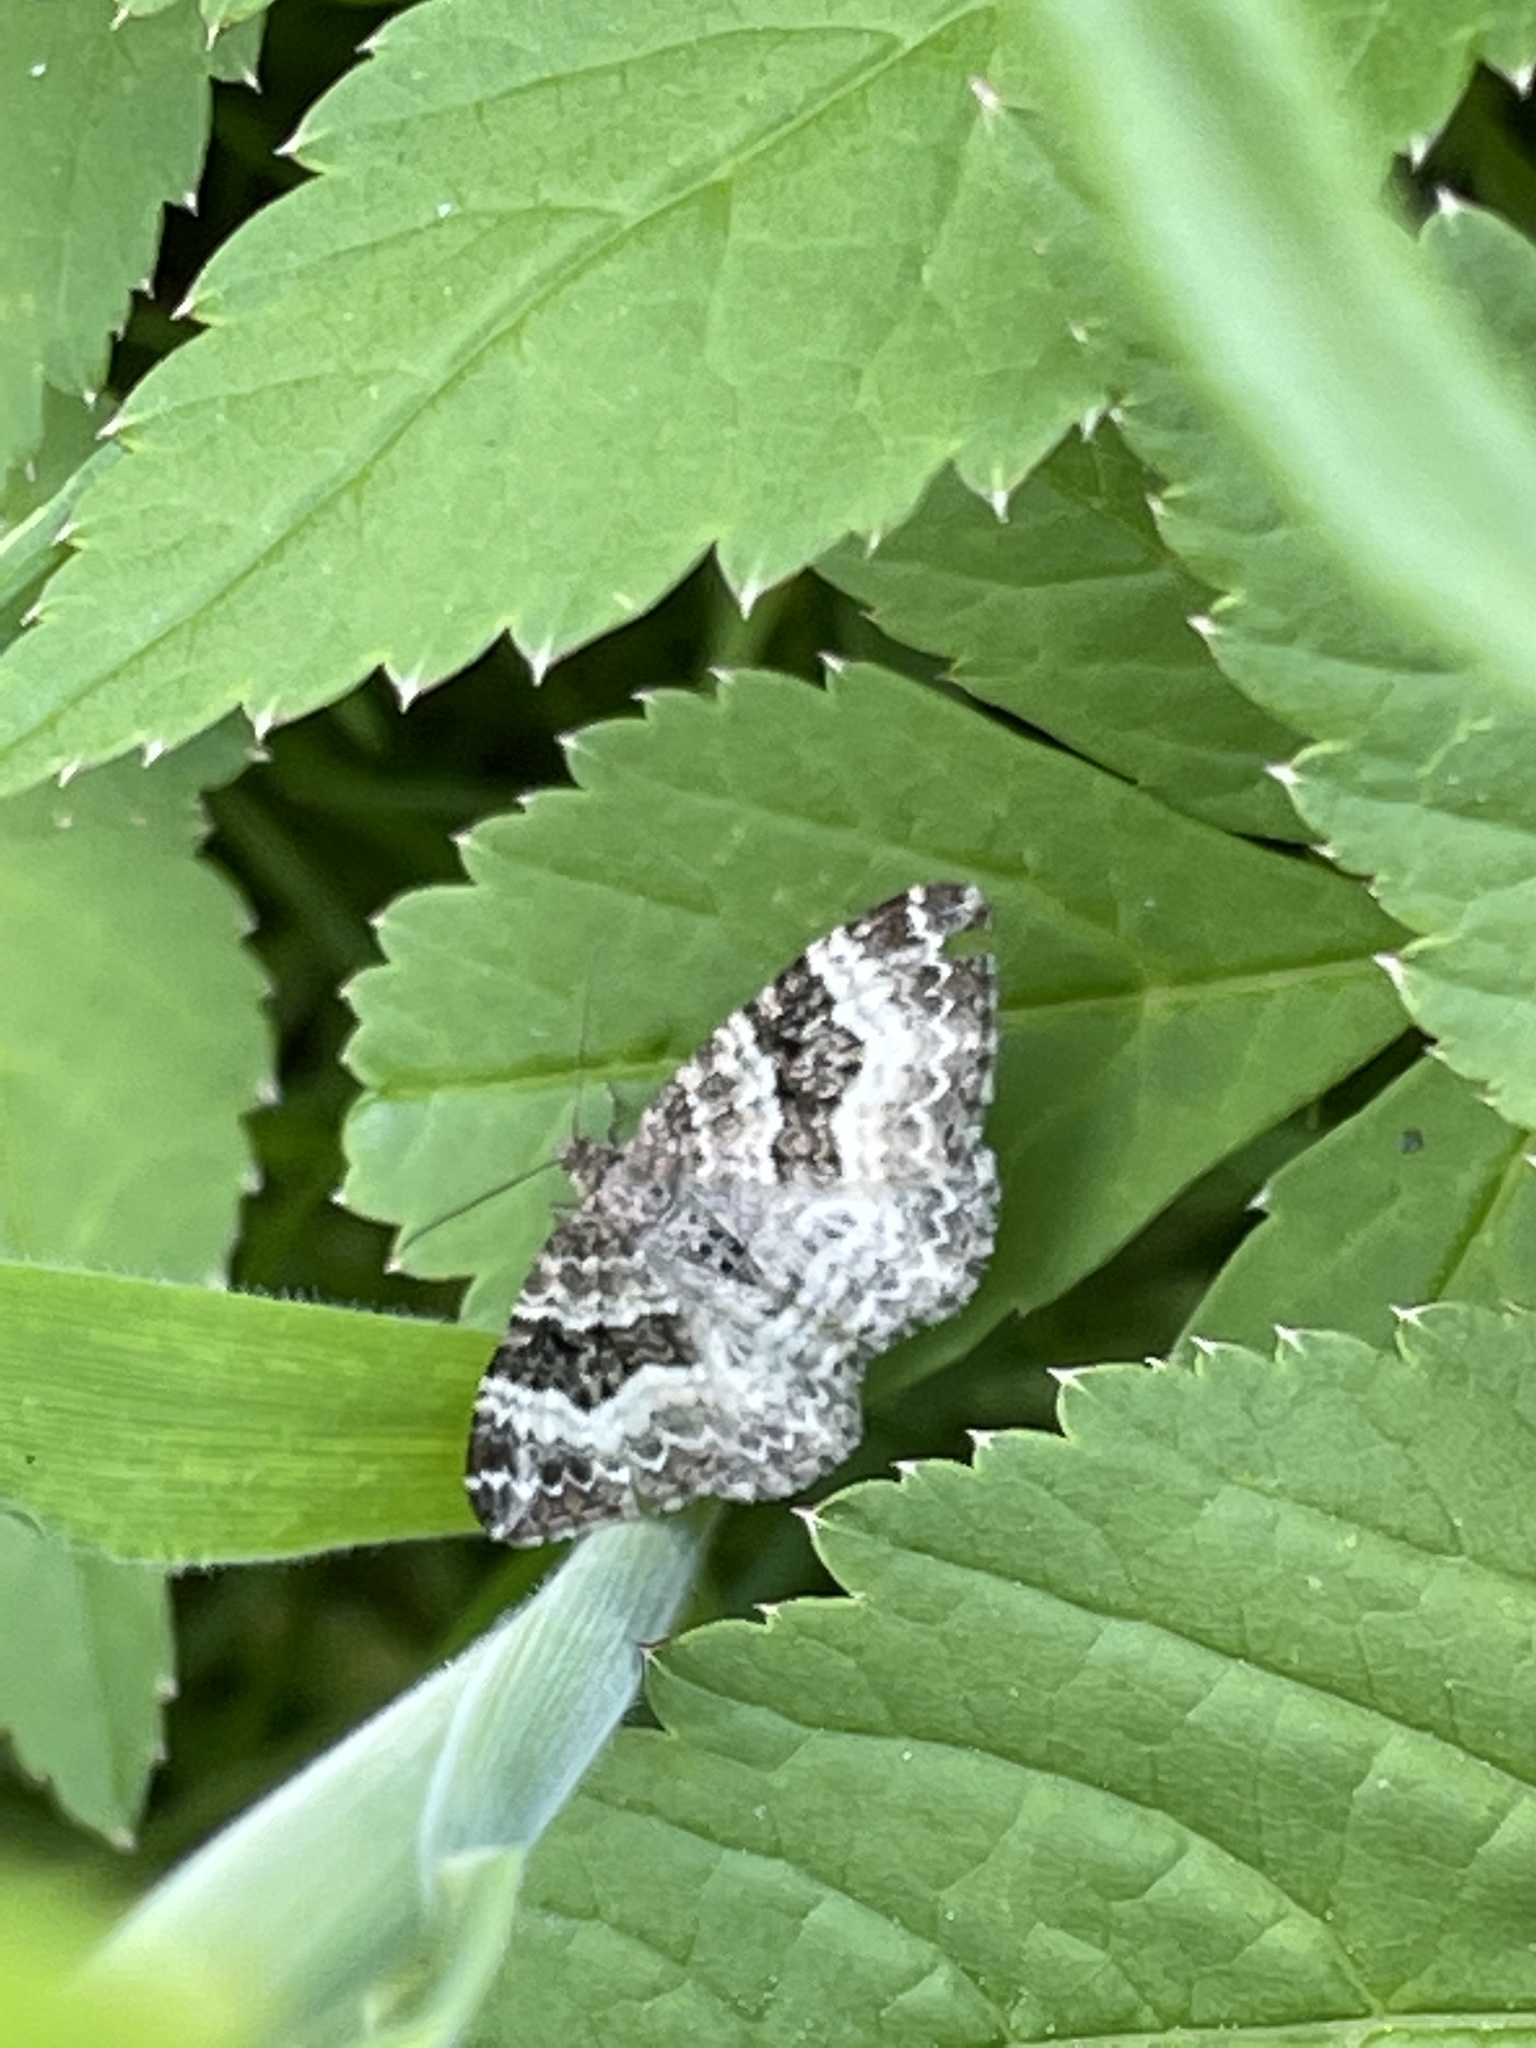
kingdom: Animalia
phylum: Arthropoda
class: Insecta
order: Lepidoptera
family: Geometridae
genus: Epirrhoe
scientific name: Epirrhoe alternata
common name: Common carpet
